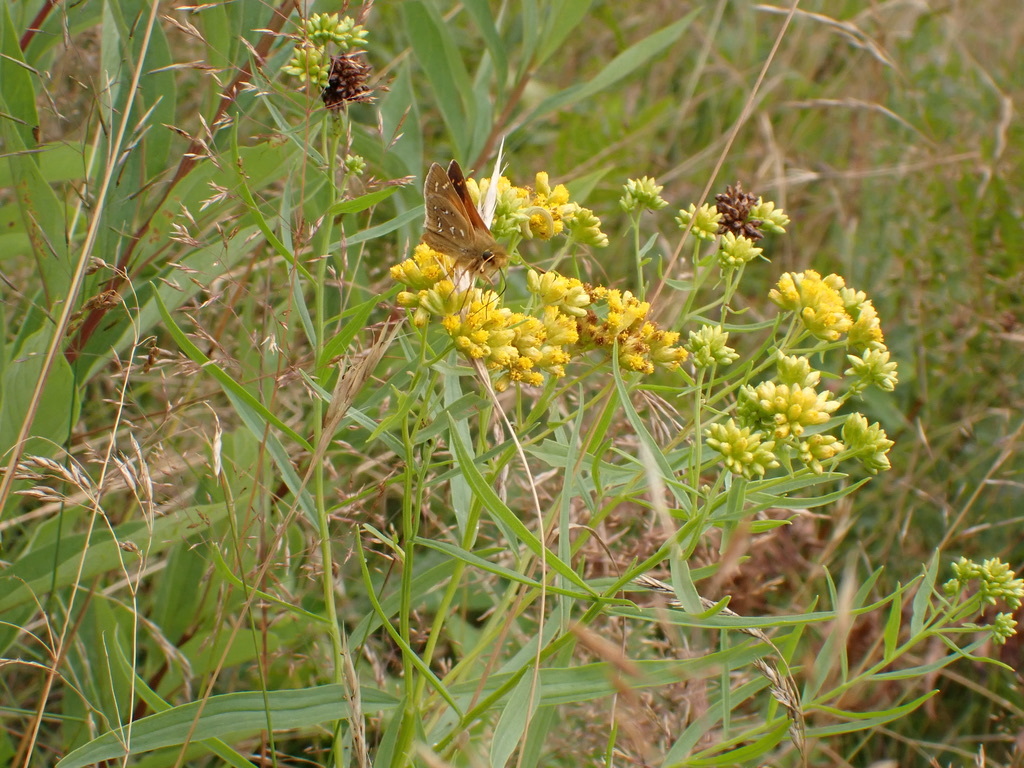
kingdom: Animalia
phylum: Arthropoda
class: Insecta
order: Lepidoptera
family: Hesperiidae
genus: Hesperia
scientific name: Hesperia comma
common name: Common branded skipper
